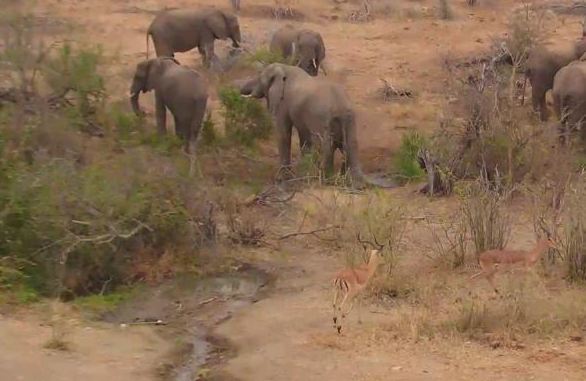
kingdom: Animalia
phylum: Chordata
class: Mammalia
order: Proboscidea
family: Elephantidae
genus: Loxodonta
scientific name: Loxodonta africana
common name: African elephant
